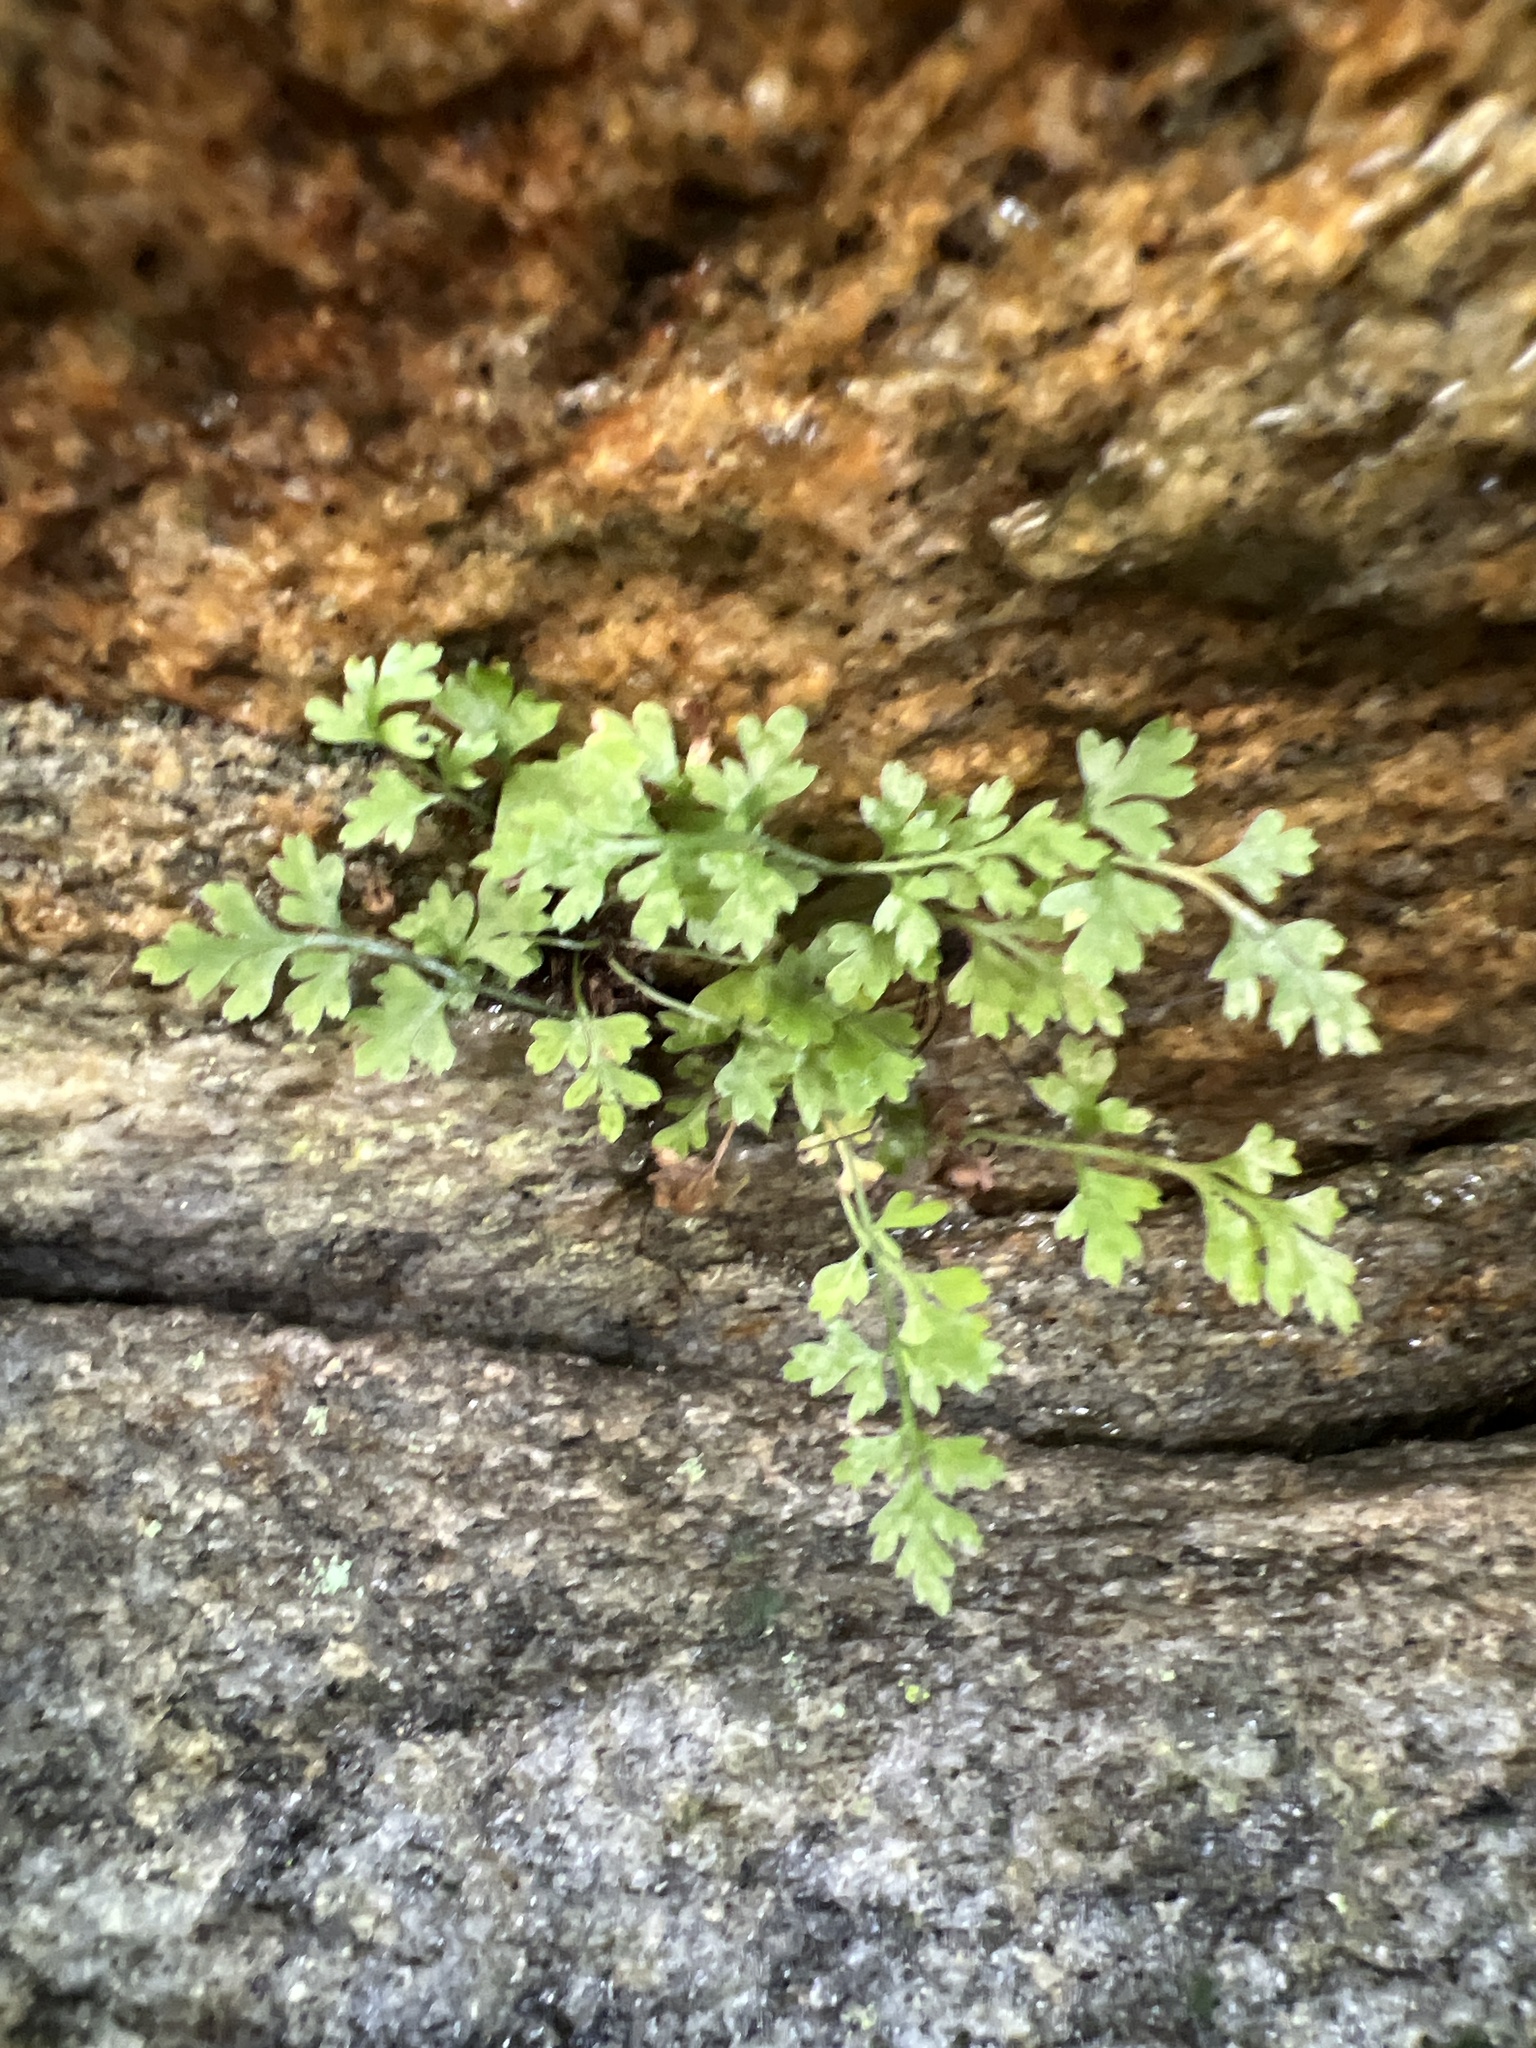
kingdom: Plantae
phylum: Tracheophyta
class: Polypodiopsida
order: Polypodiales
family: Aspleniaceae
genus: Asplenium
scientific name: Asplenium montanum
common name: Mountain spleenwort
